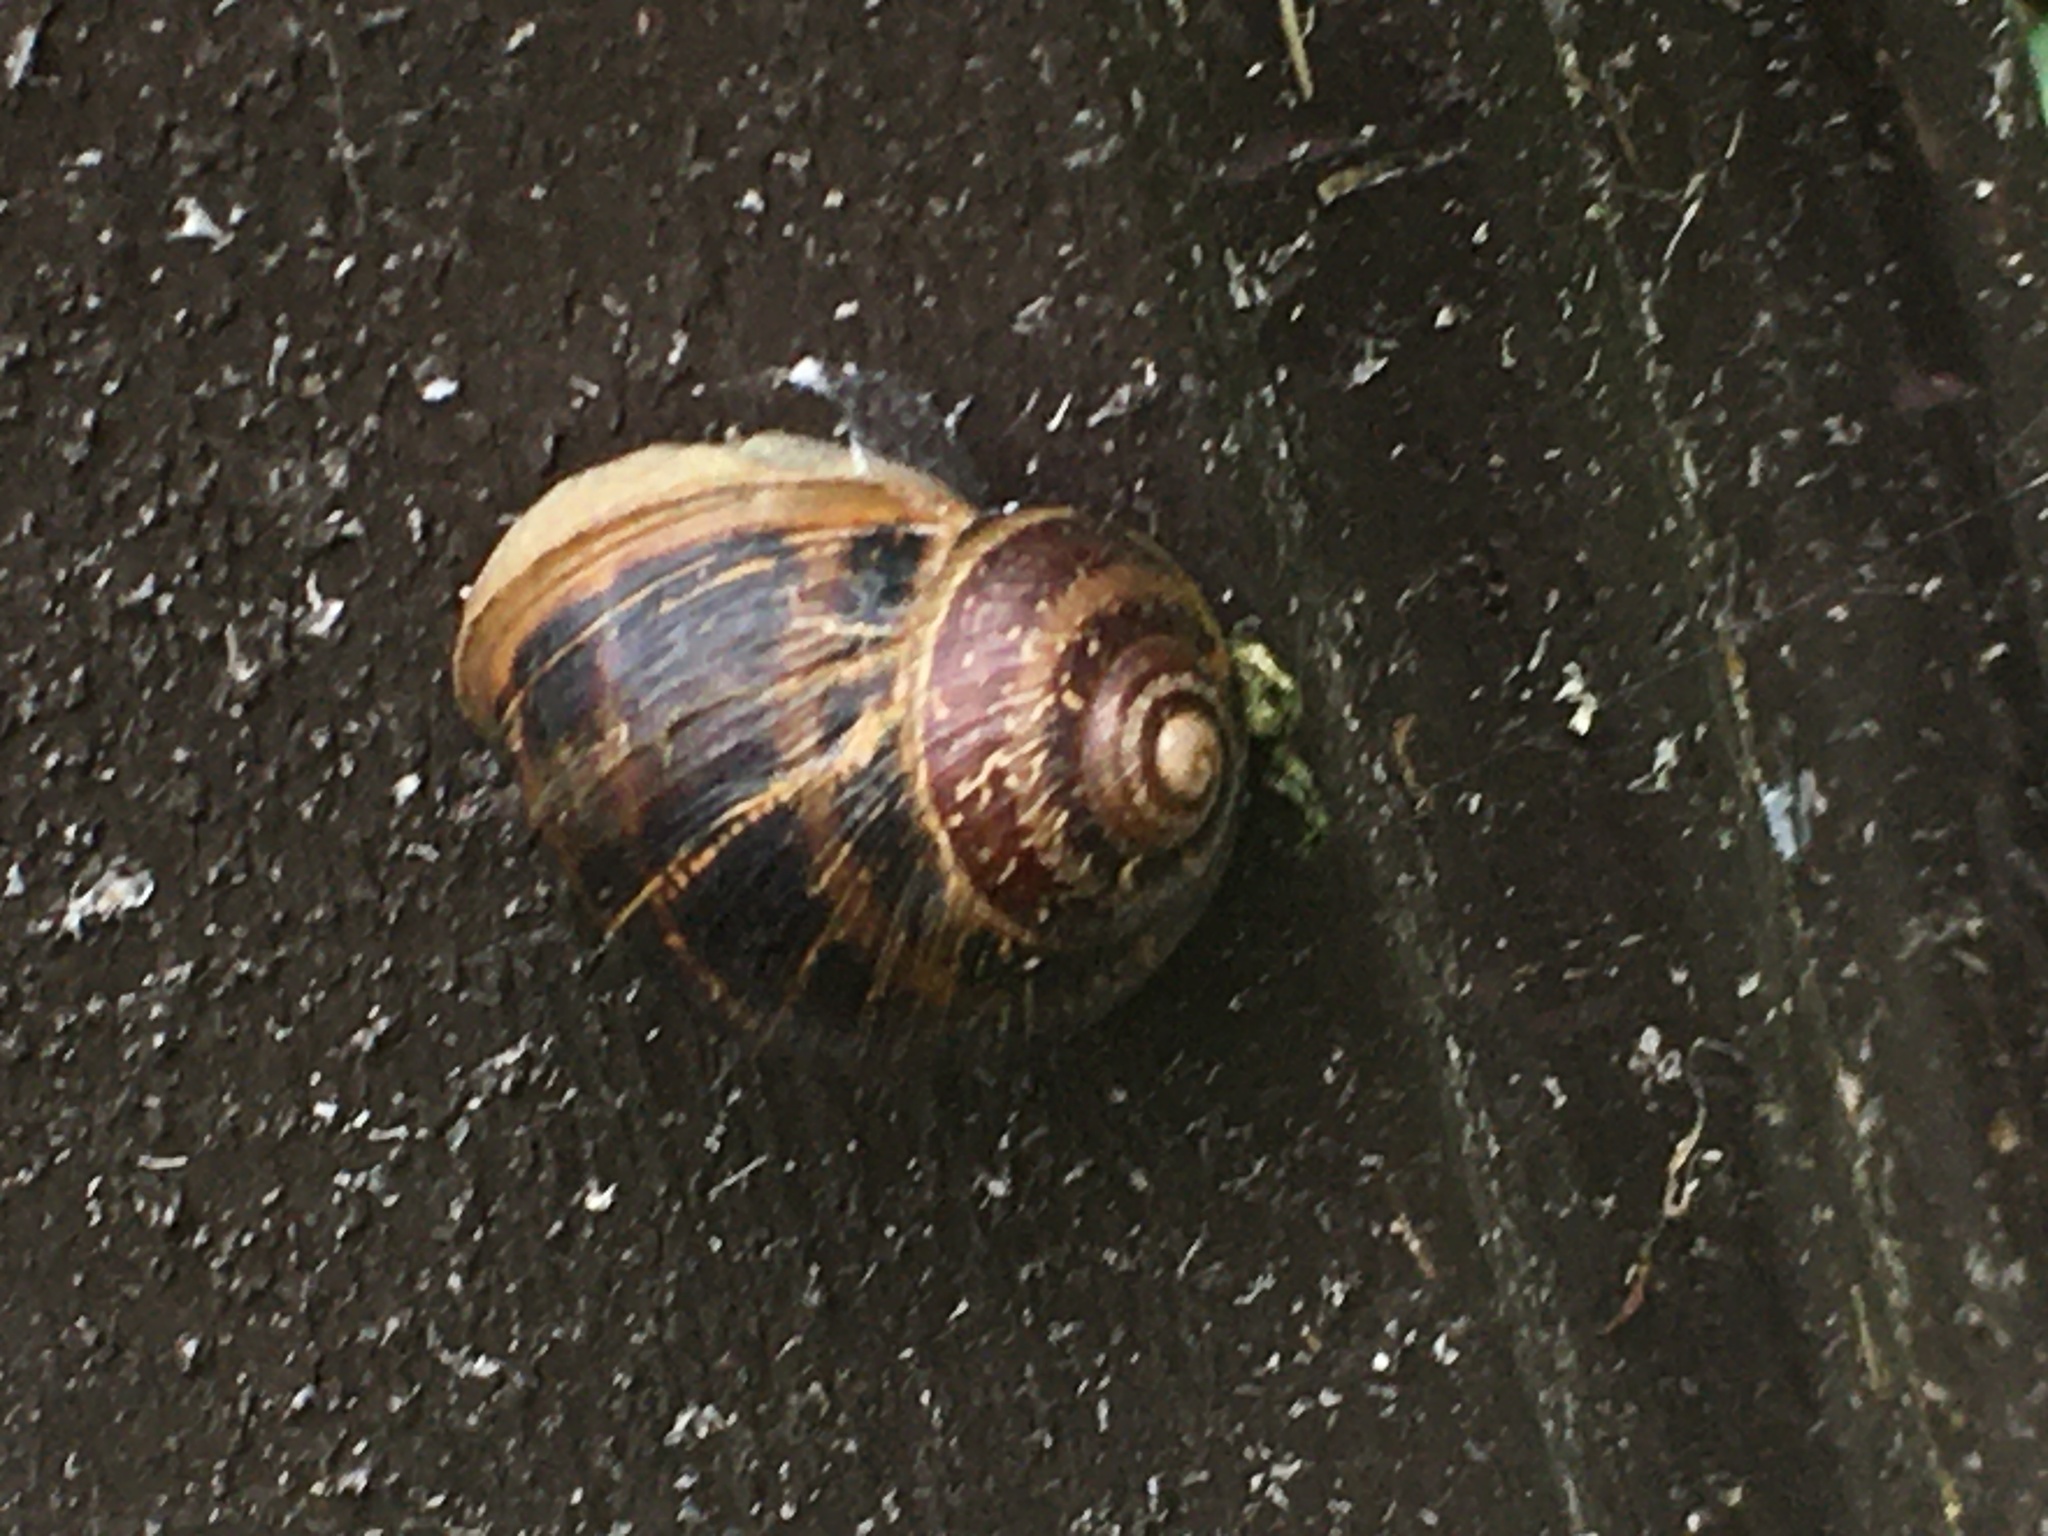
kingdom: Animalia
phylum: Mollusca
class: Gastropoda
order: Stylommatophora
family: Helicidae
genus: Cornu
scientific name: Cornu aspersum
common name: Brown garden snail
